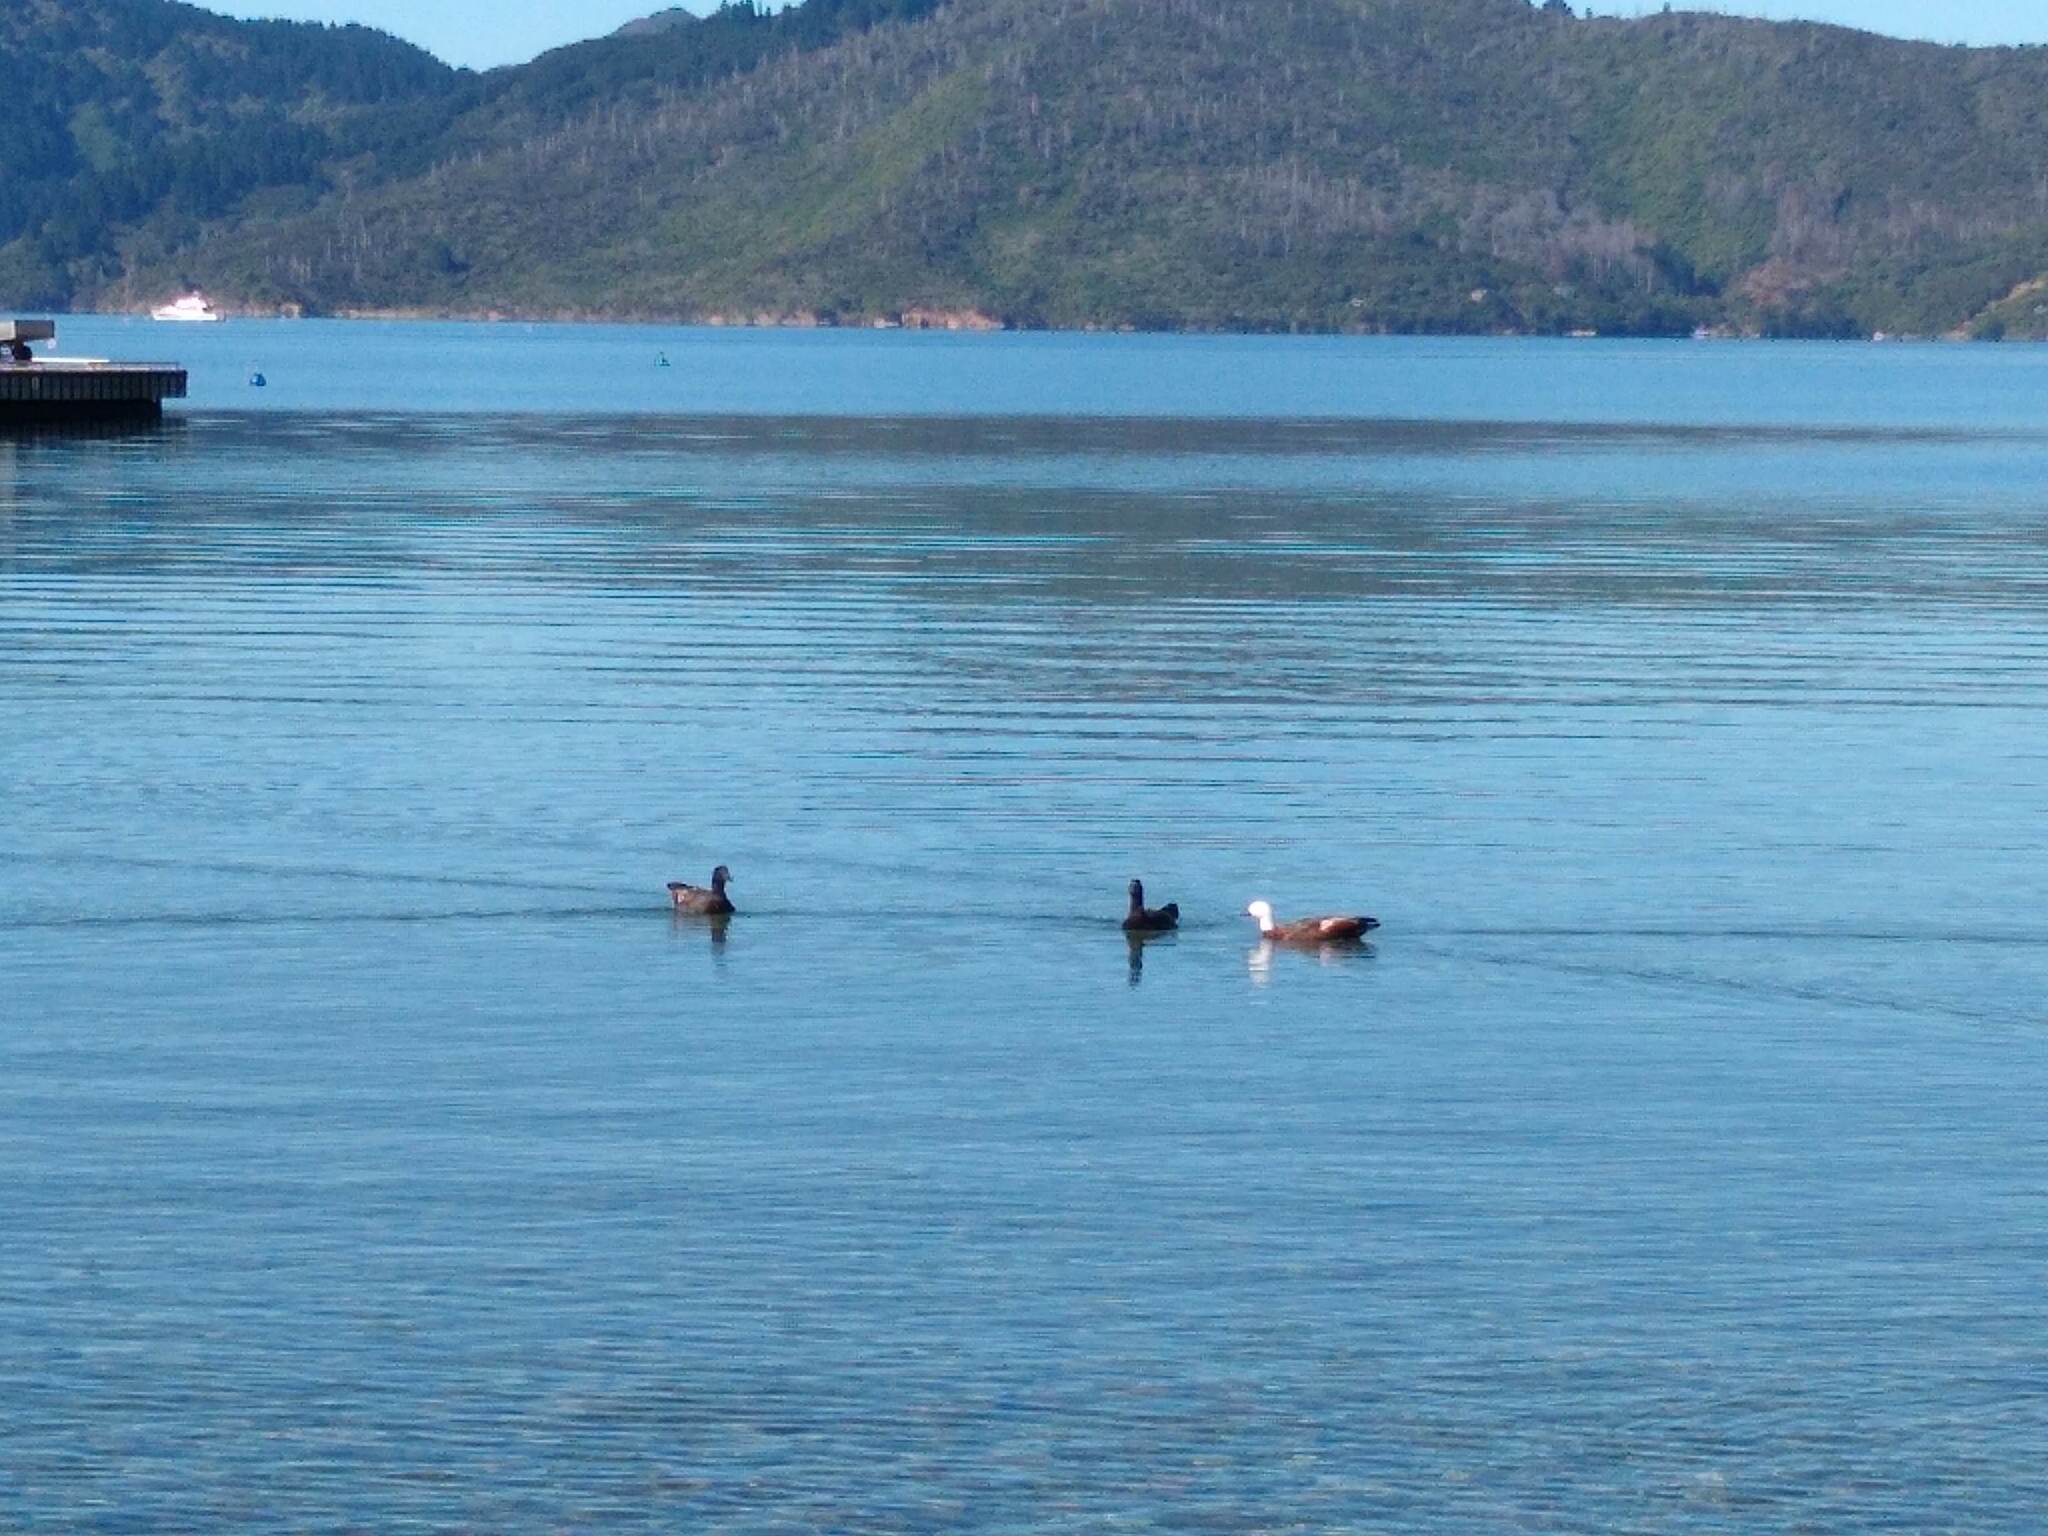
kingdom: Animalia
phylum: Chordata
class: Aves
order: Anseriformes
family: Anatidae
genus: Tadorna
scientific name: Tadorna variegata
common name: Paradise shelduck
